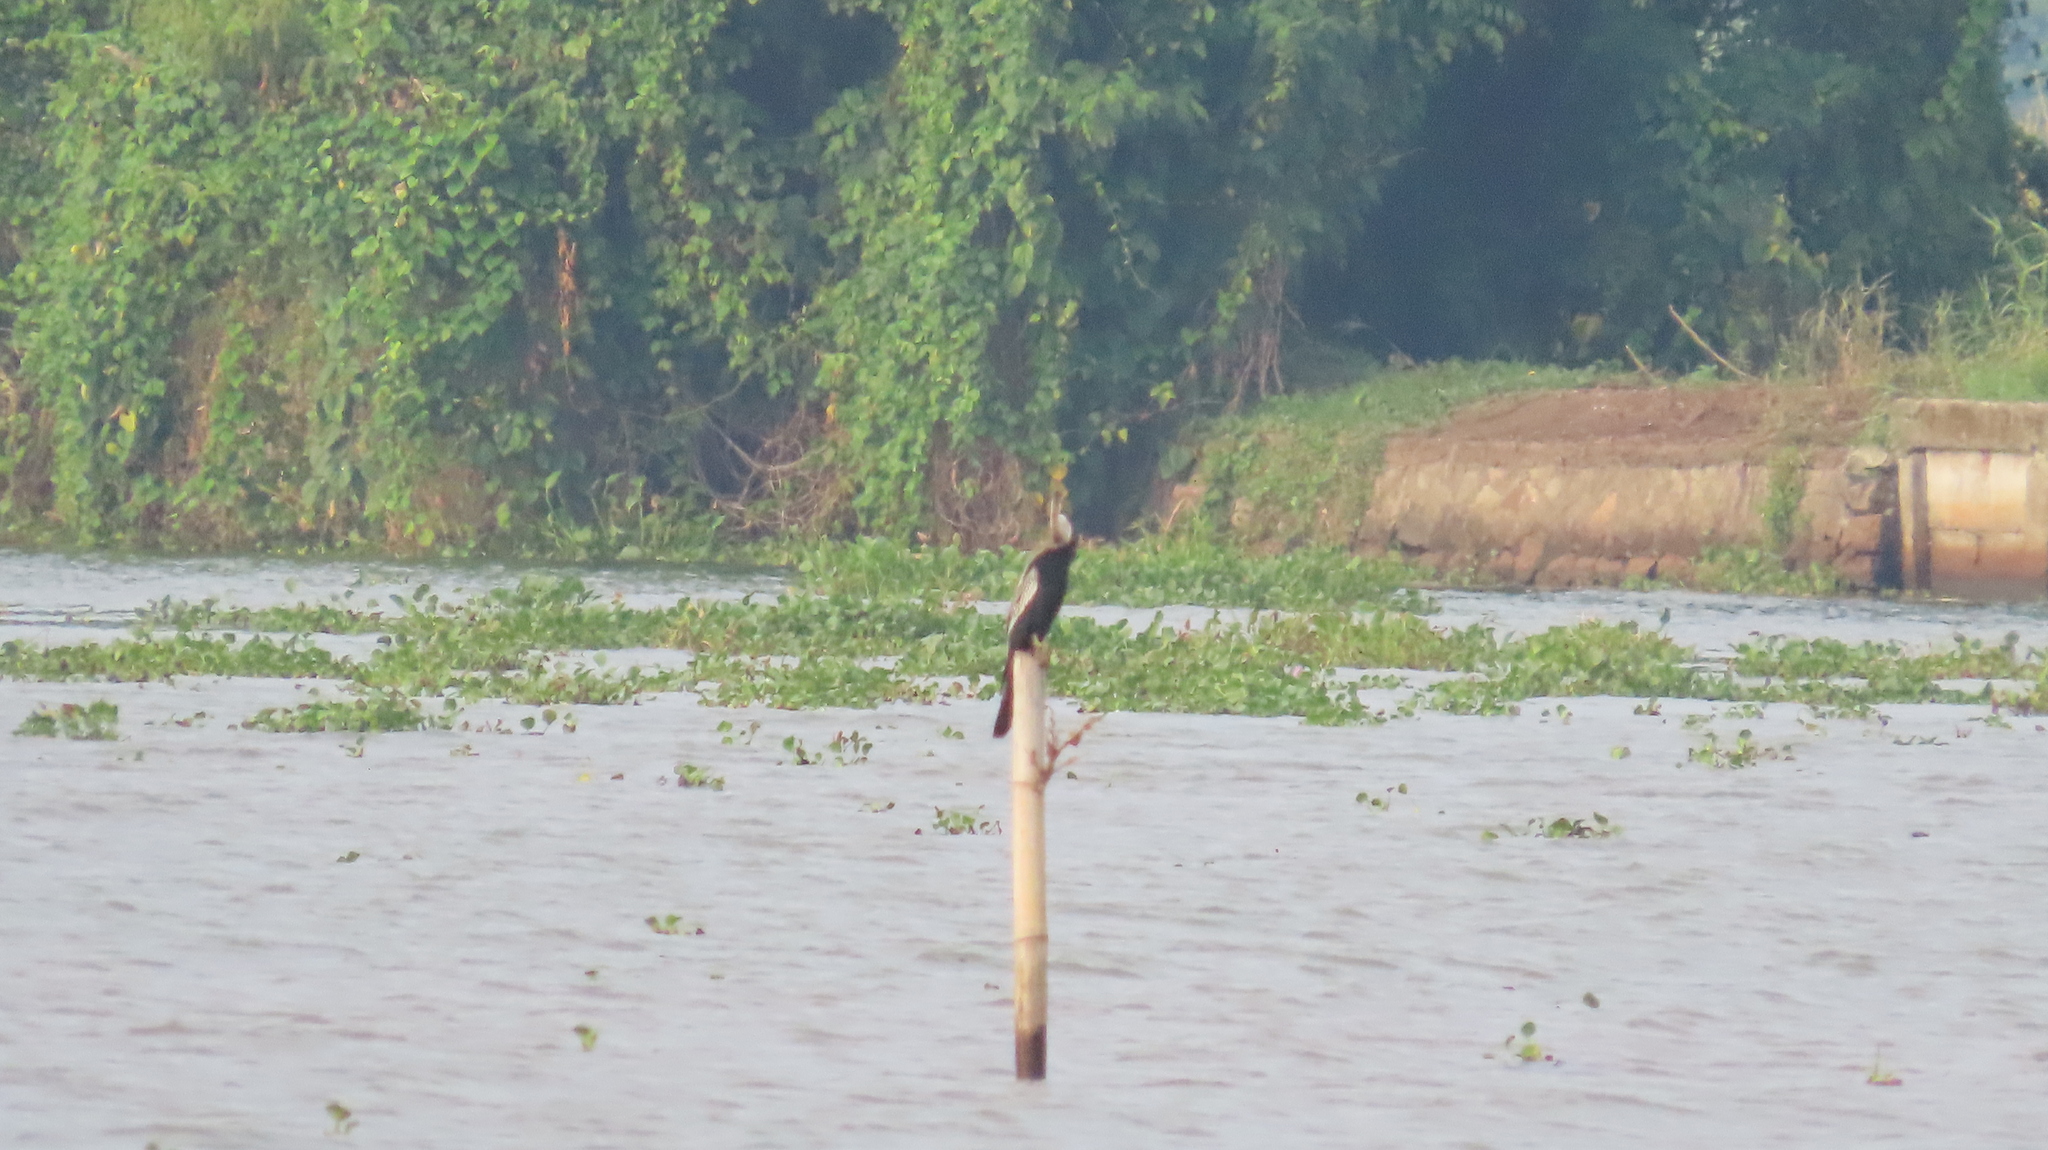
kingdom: Animalia
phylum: Chordata
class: Aves
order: Suliformes
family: Anhingidae
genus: Anhinga
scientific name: Anhinga melanogaster
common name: Oriental darter
